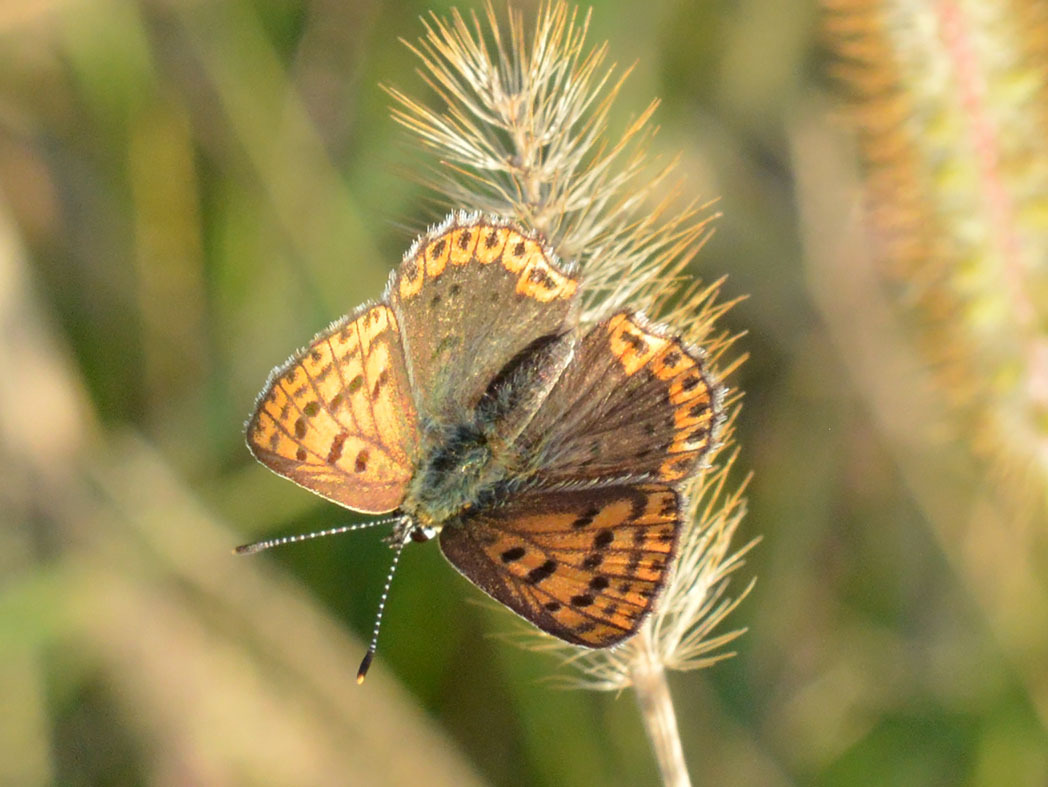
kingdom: Animalia
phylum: Arthropoda
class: Insecta
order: Lepidoptera
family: Lycaenidae
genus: Loweia
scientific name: Loweia tityrus
